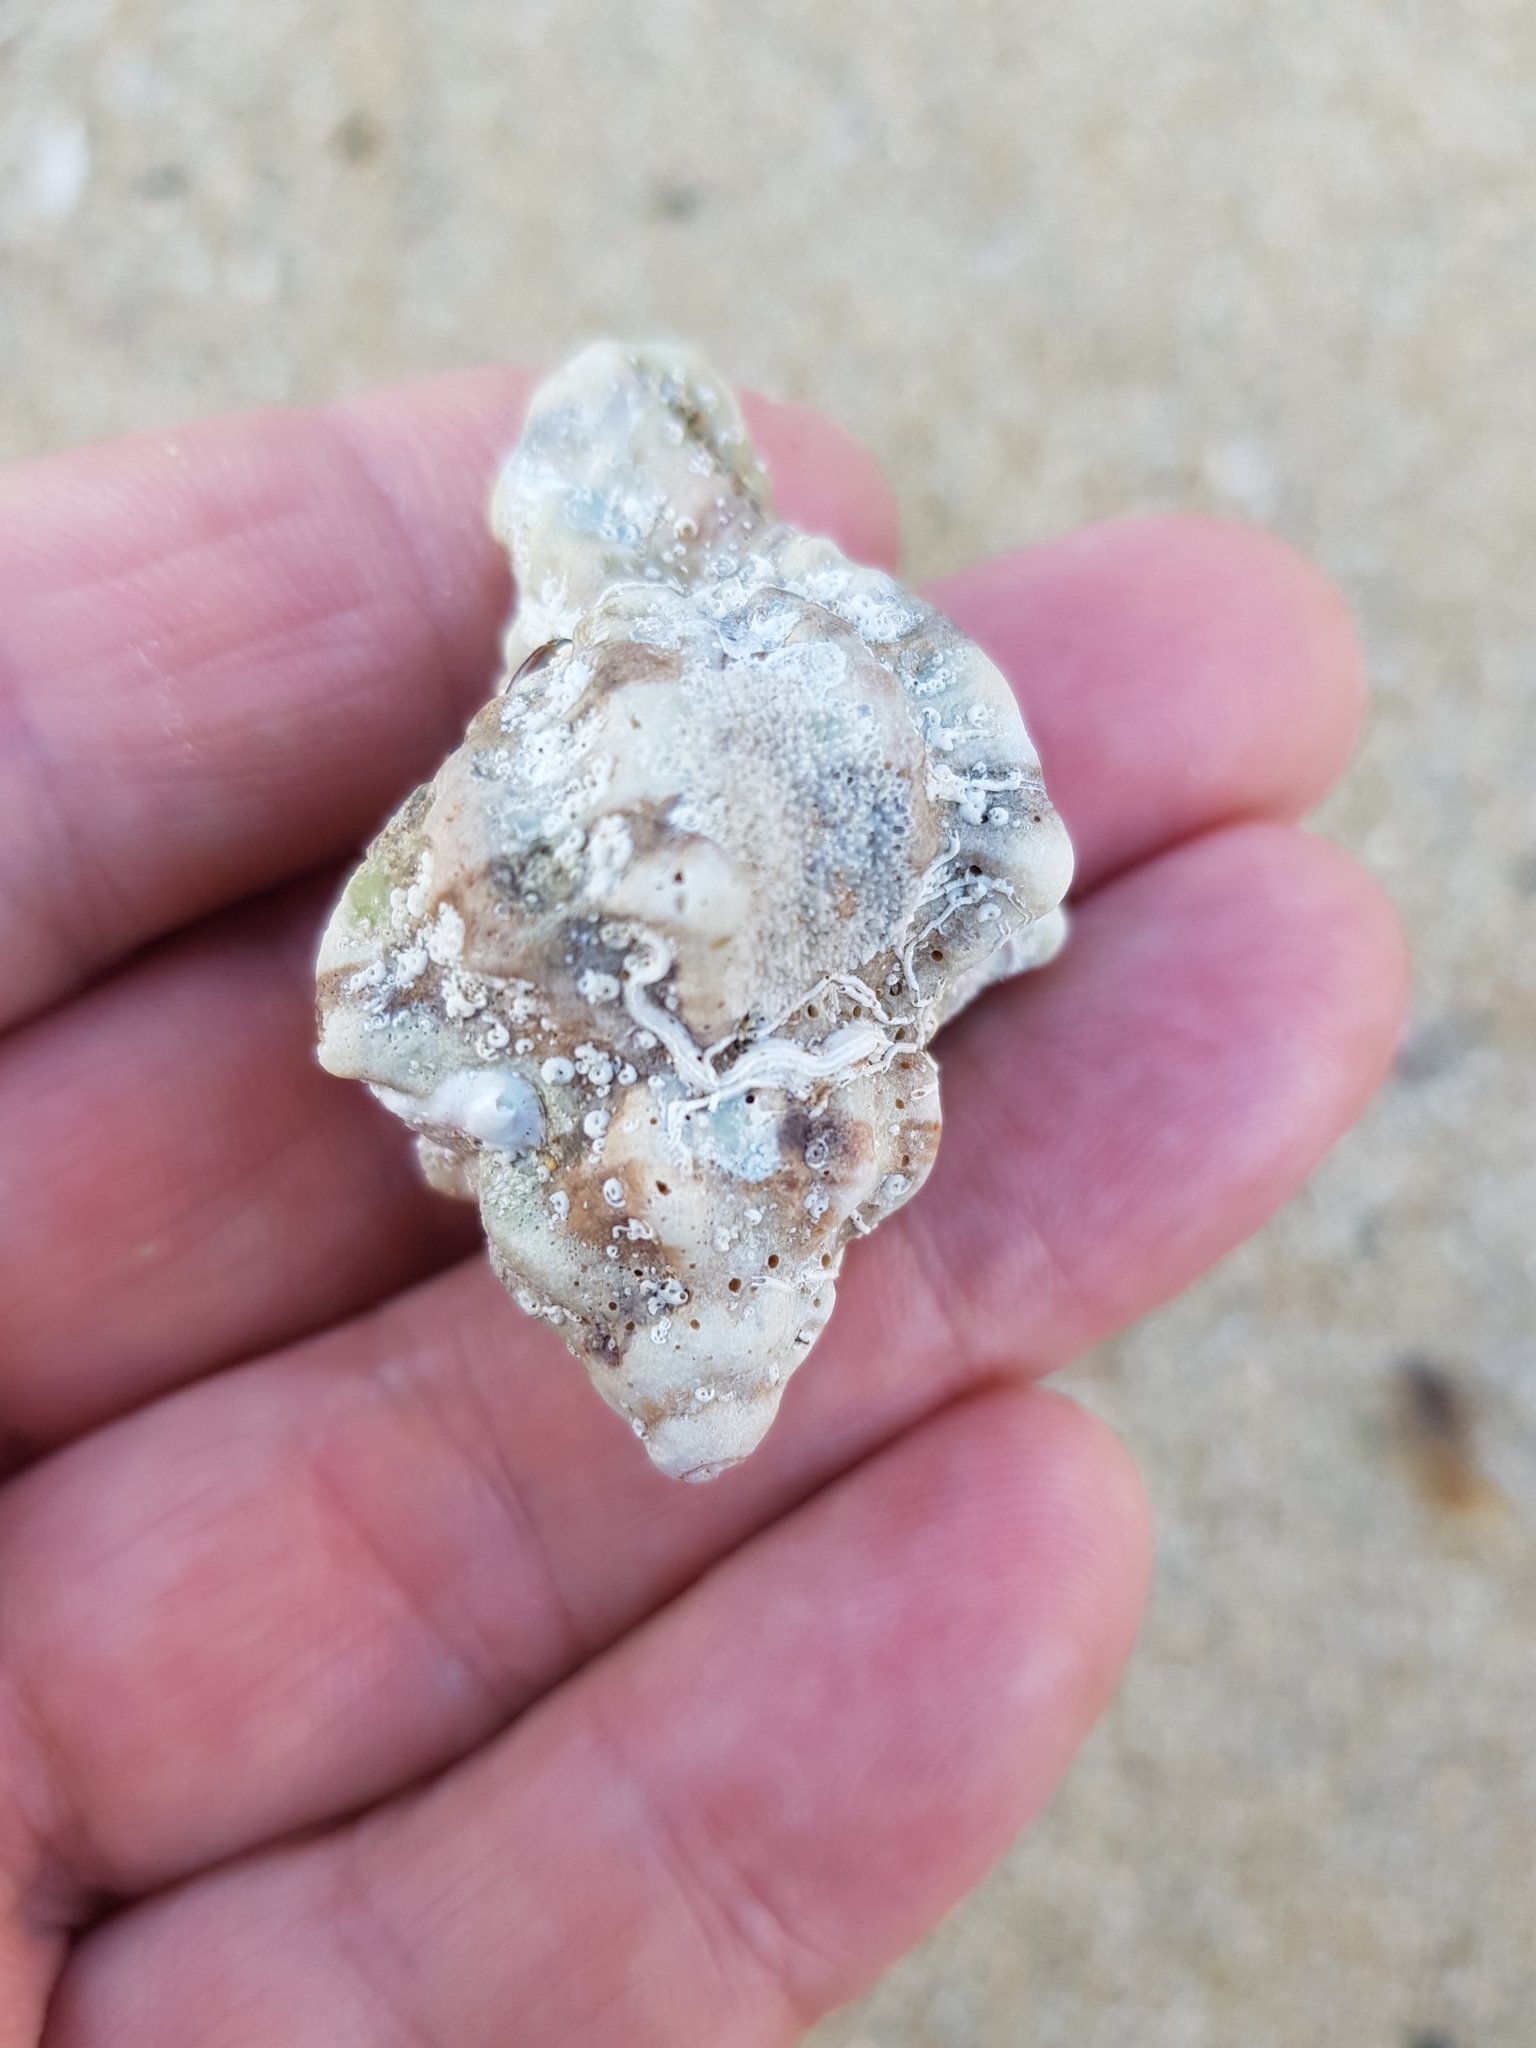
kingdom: Animalia
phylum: Mollusca
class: Gastropoda
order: Neogastropoda
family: Muricidae
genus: Hexaplex
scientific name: Hexaplex trunculus
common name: Banded dye-murex
